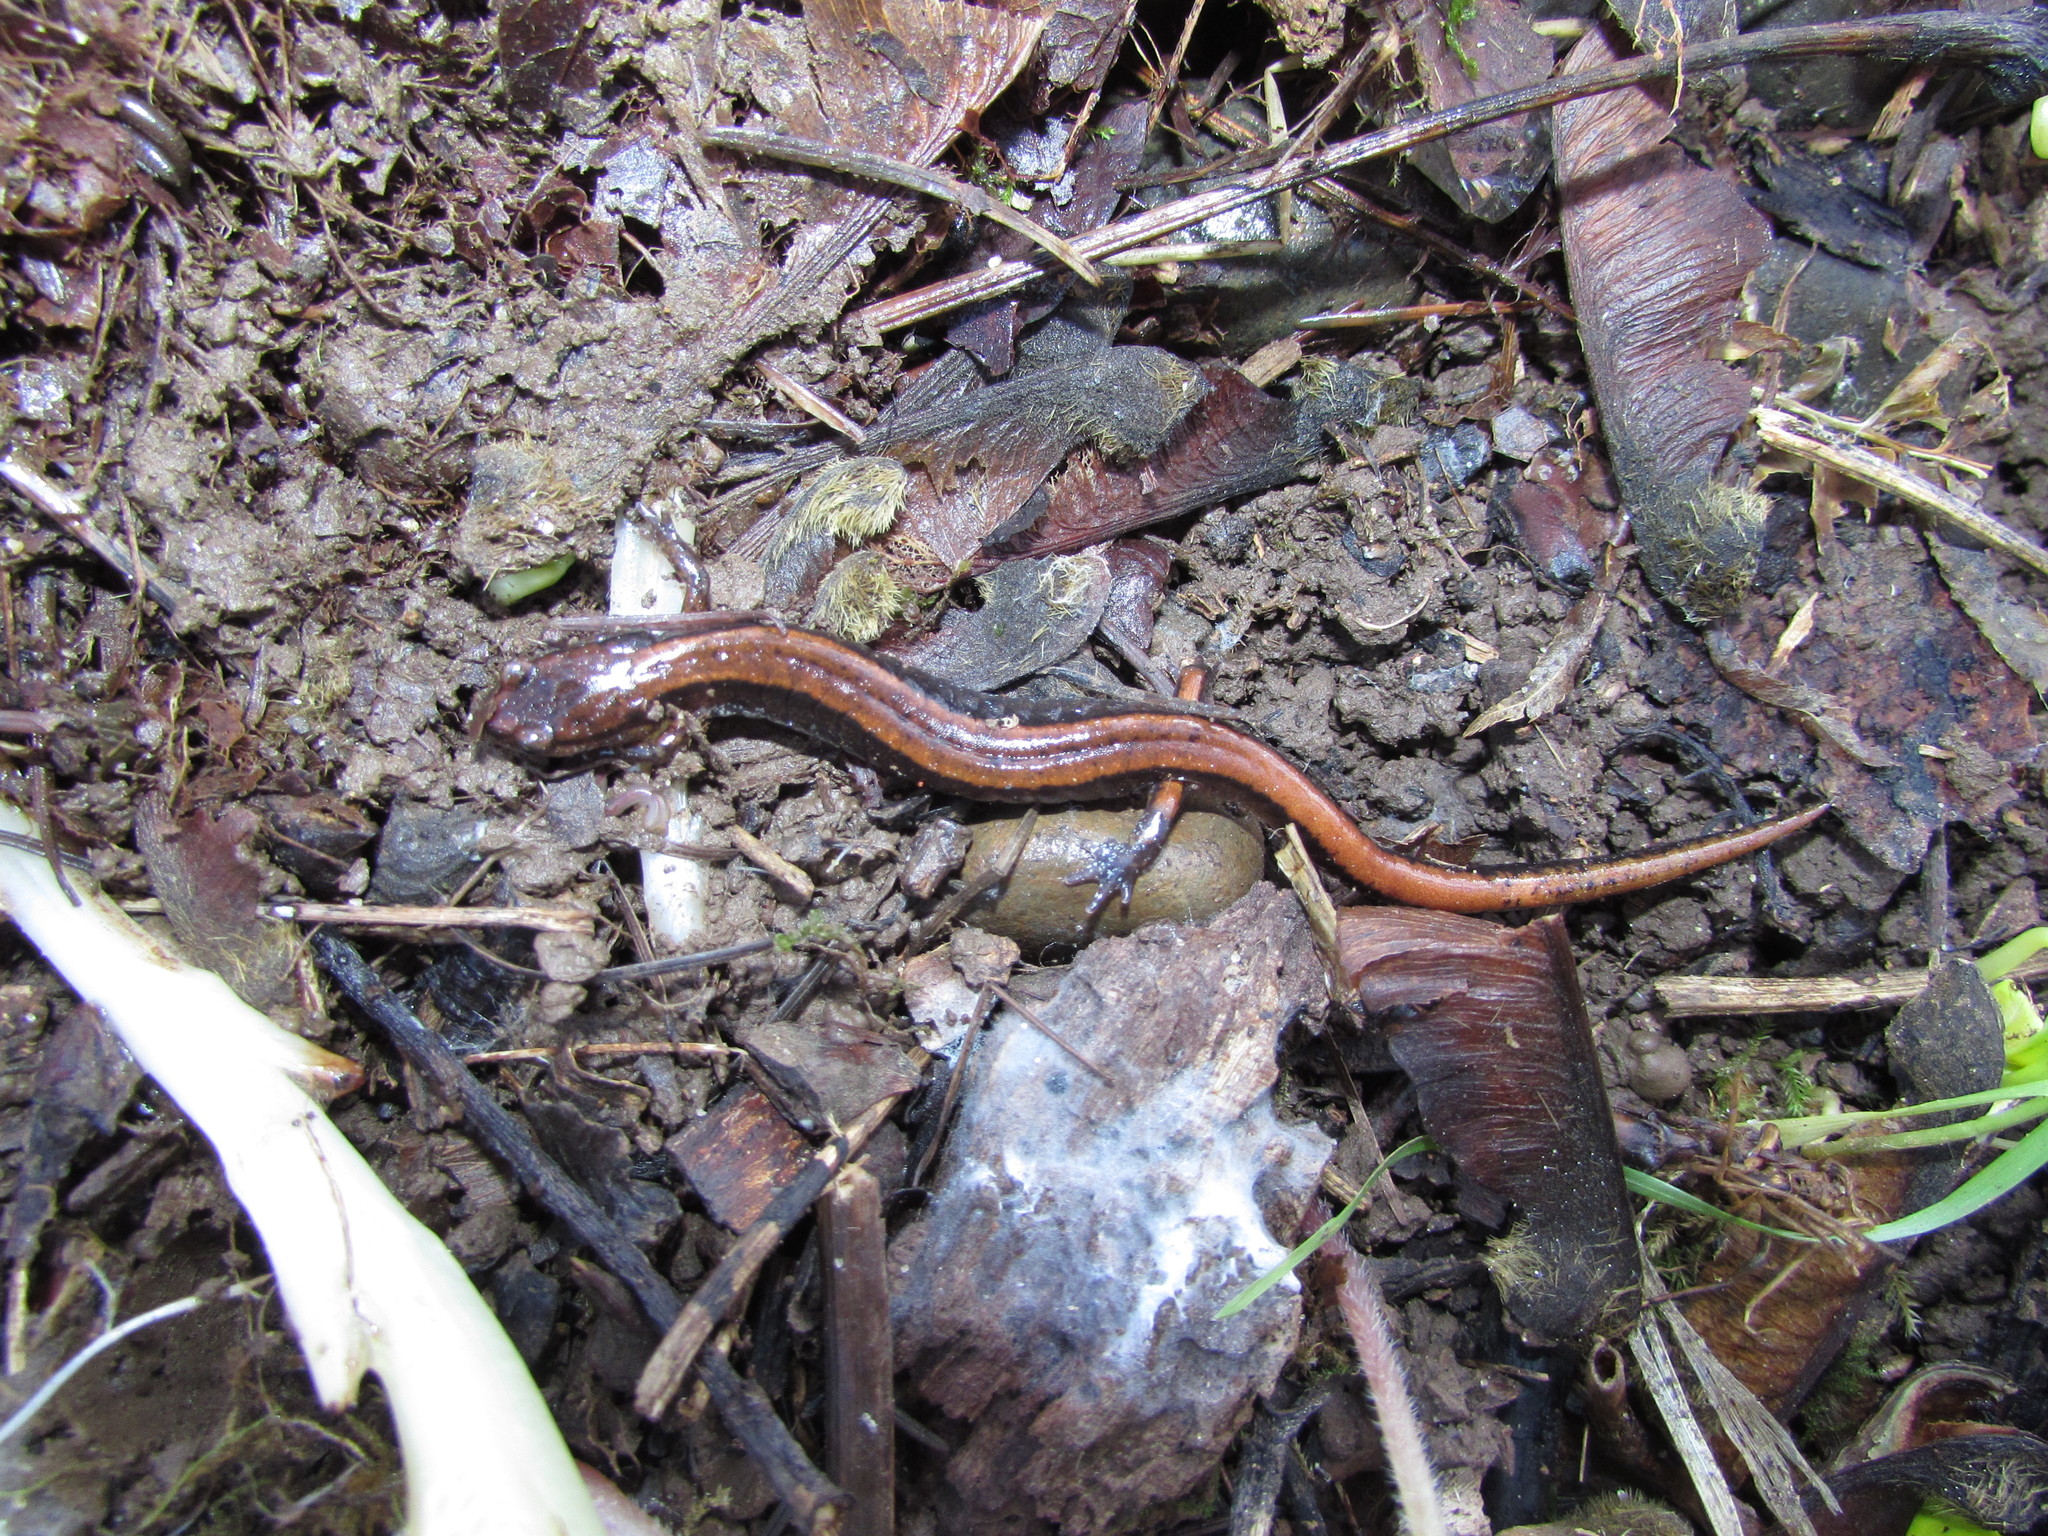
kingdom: Animalia
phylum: Chordata
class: Amphibia
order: Caudata
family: Plethodontidae
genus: Plethodon
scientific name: Plethodon vehiculum
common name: Western red-backed salamander
